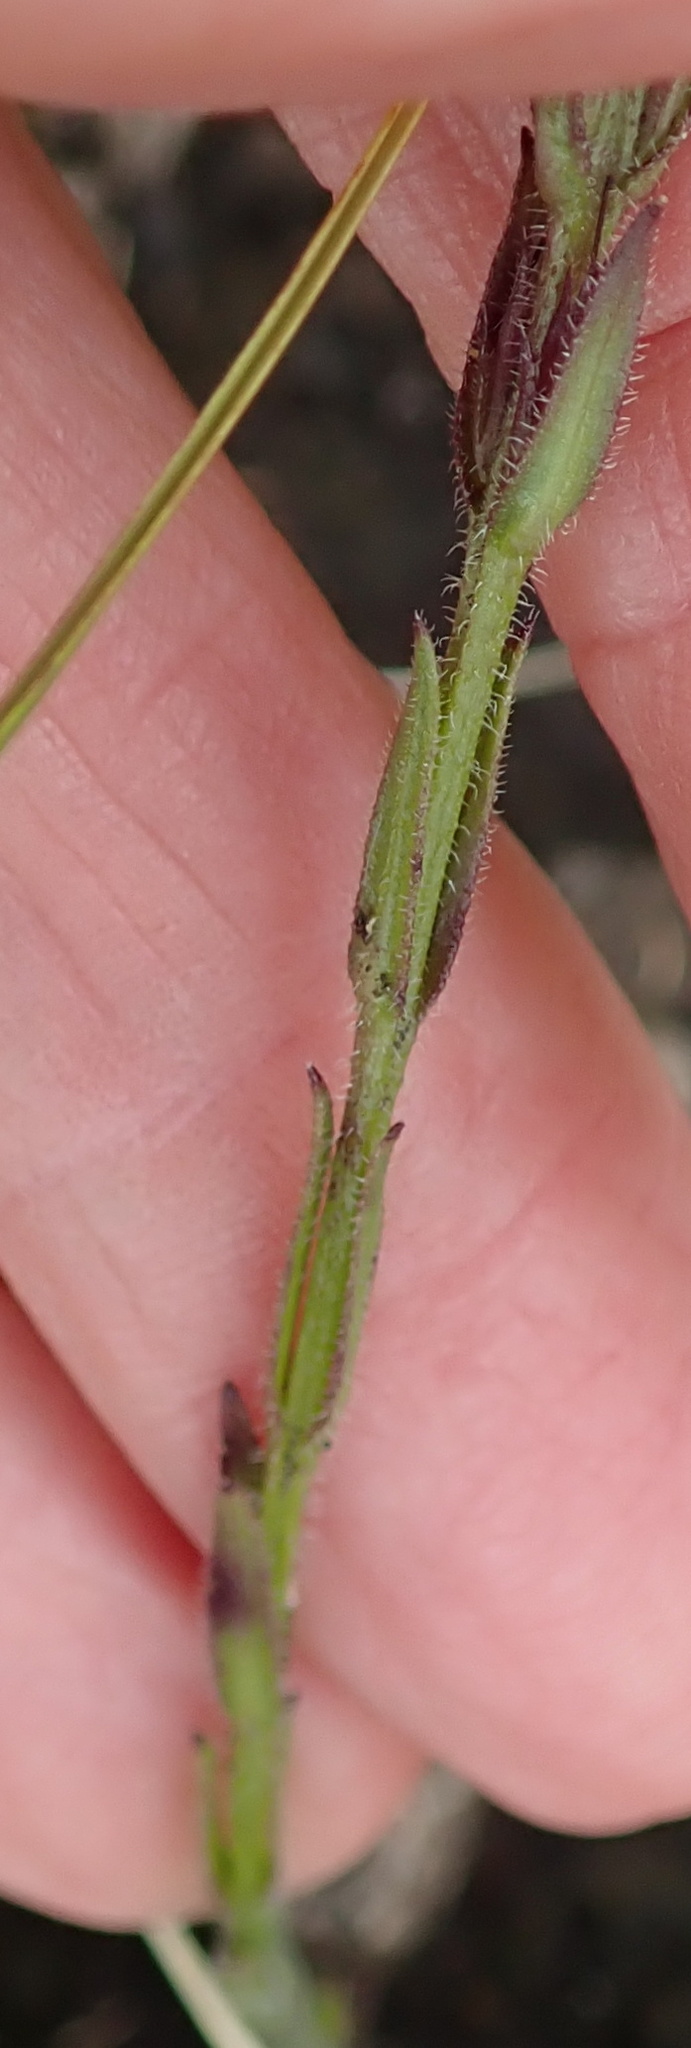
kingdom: Plantae
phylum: Tracheophyta
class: Magnoliopsida
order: Lamiales
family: Orobanchaceae
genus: Striga
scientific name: Striga bilabiata
